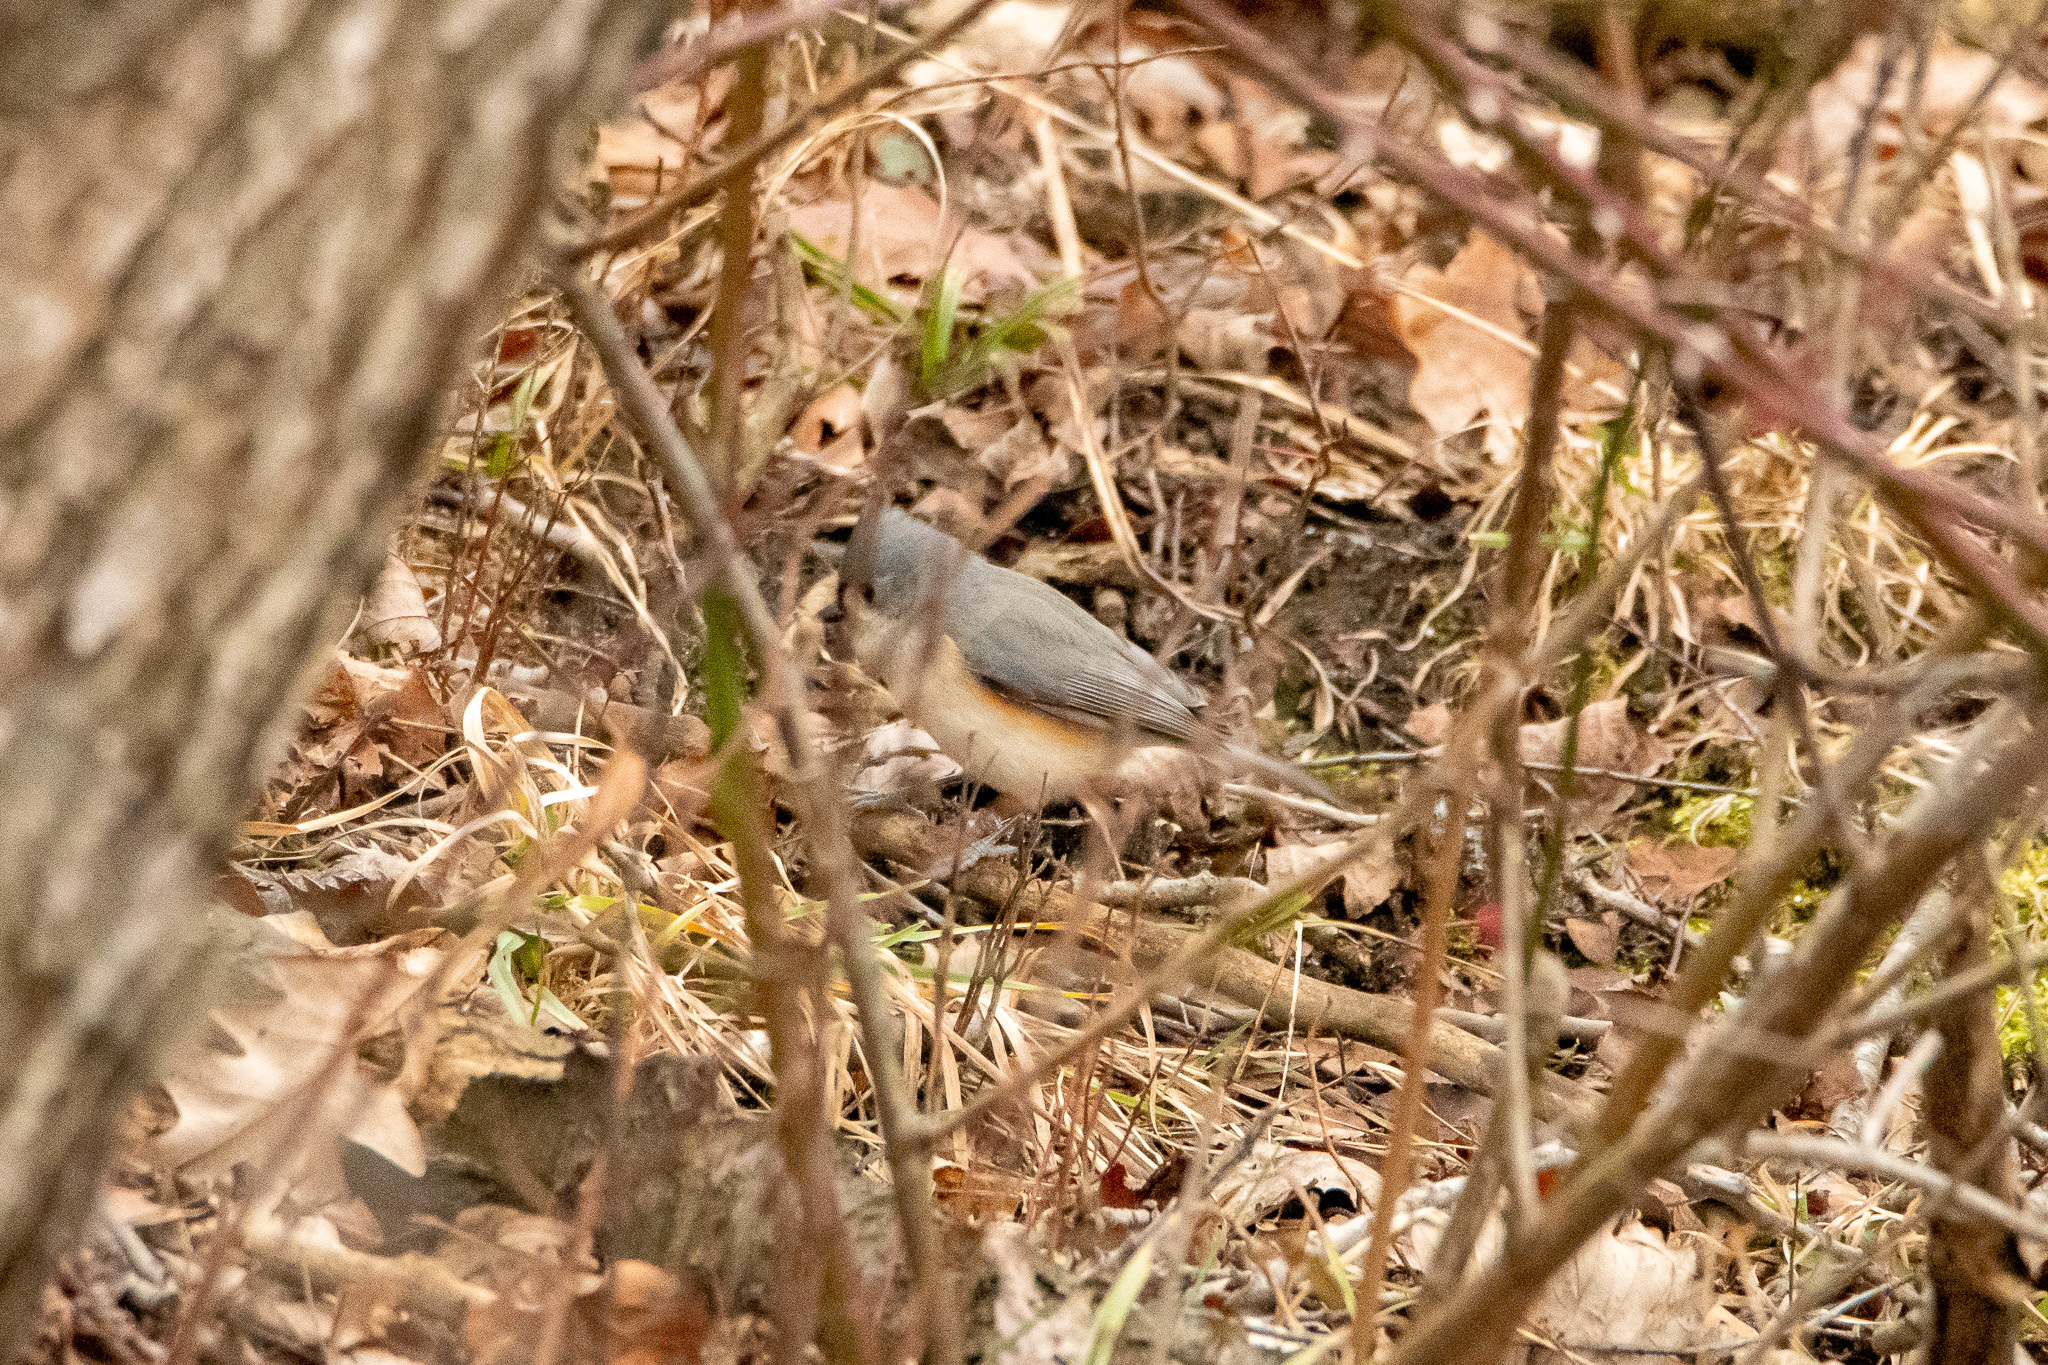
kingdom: Animalia
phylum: Chordata
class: Aves
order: Passeriformes
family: Paridae
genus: Baeolophus
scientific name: Baeolophus bicolor
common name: Tufted titmouse
